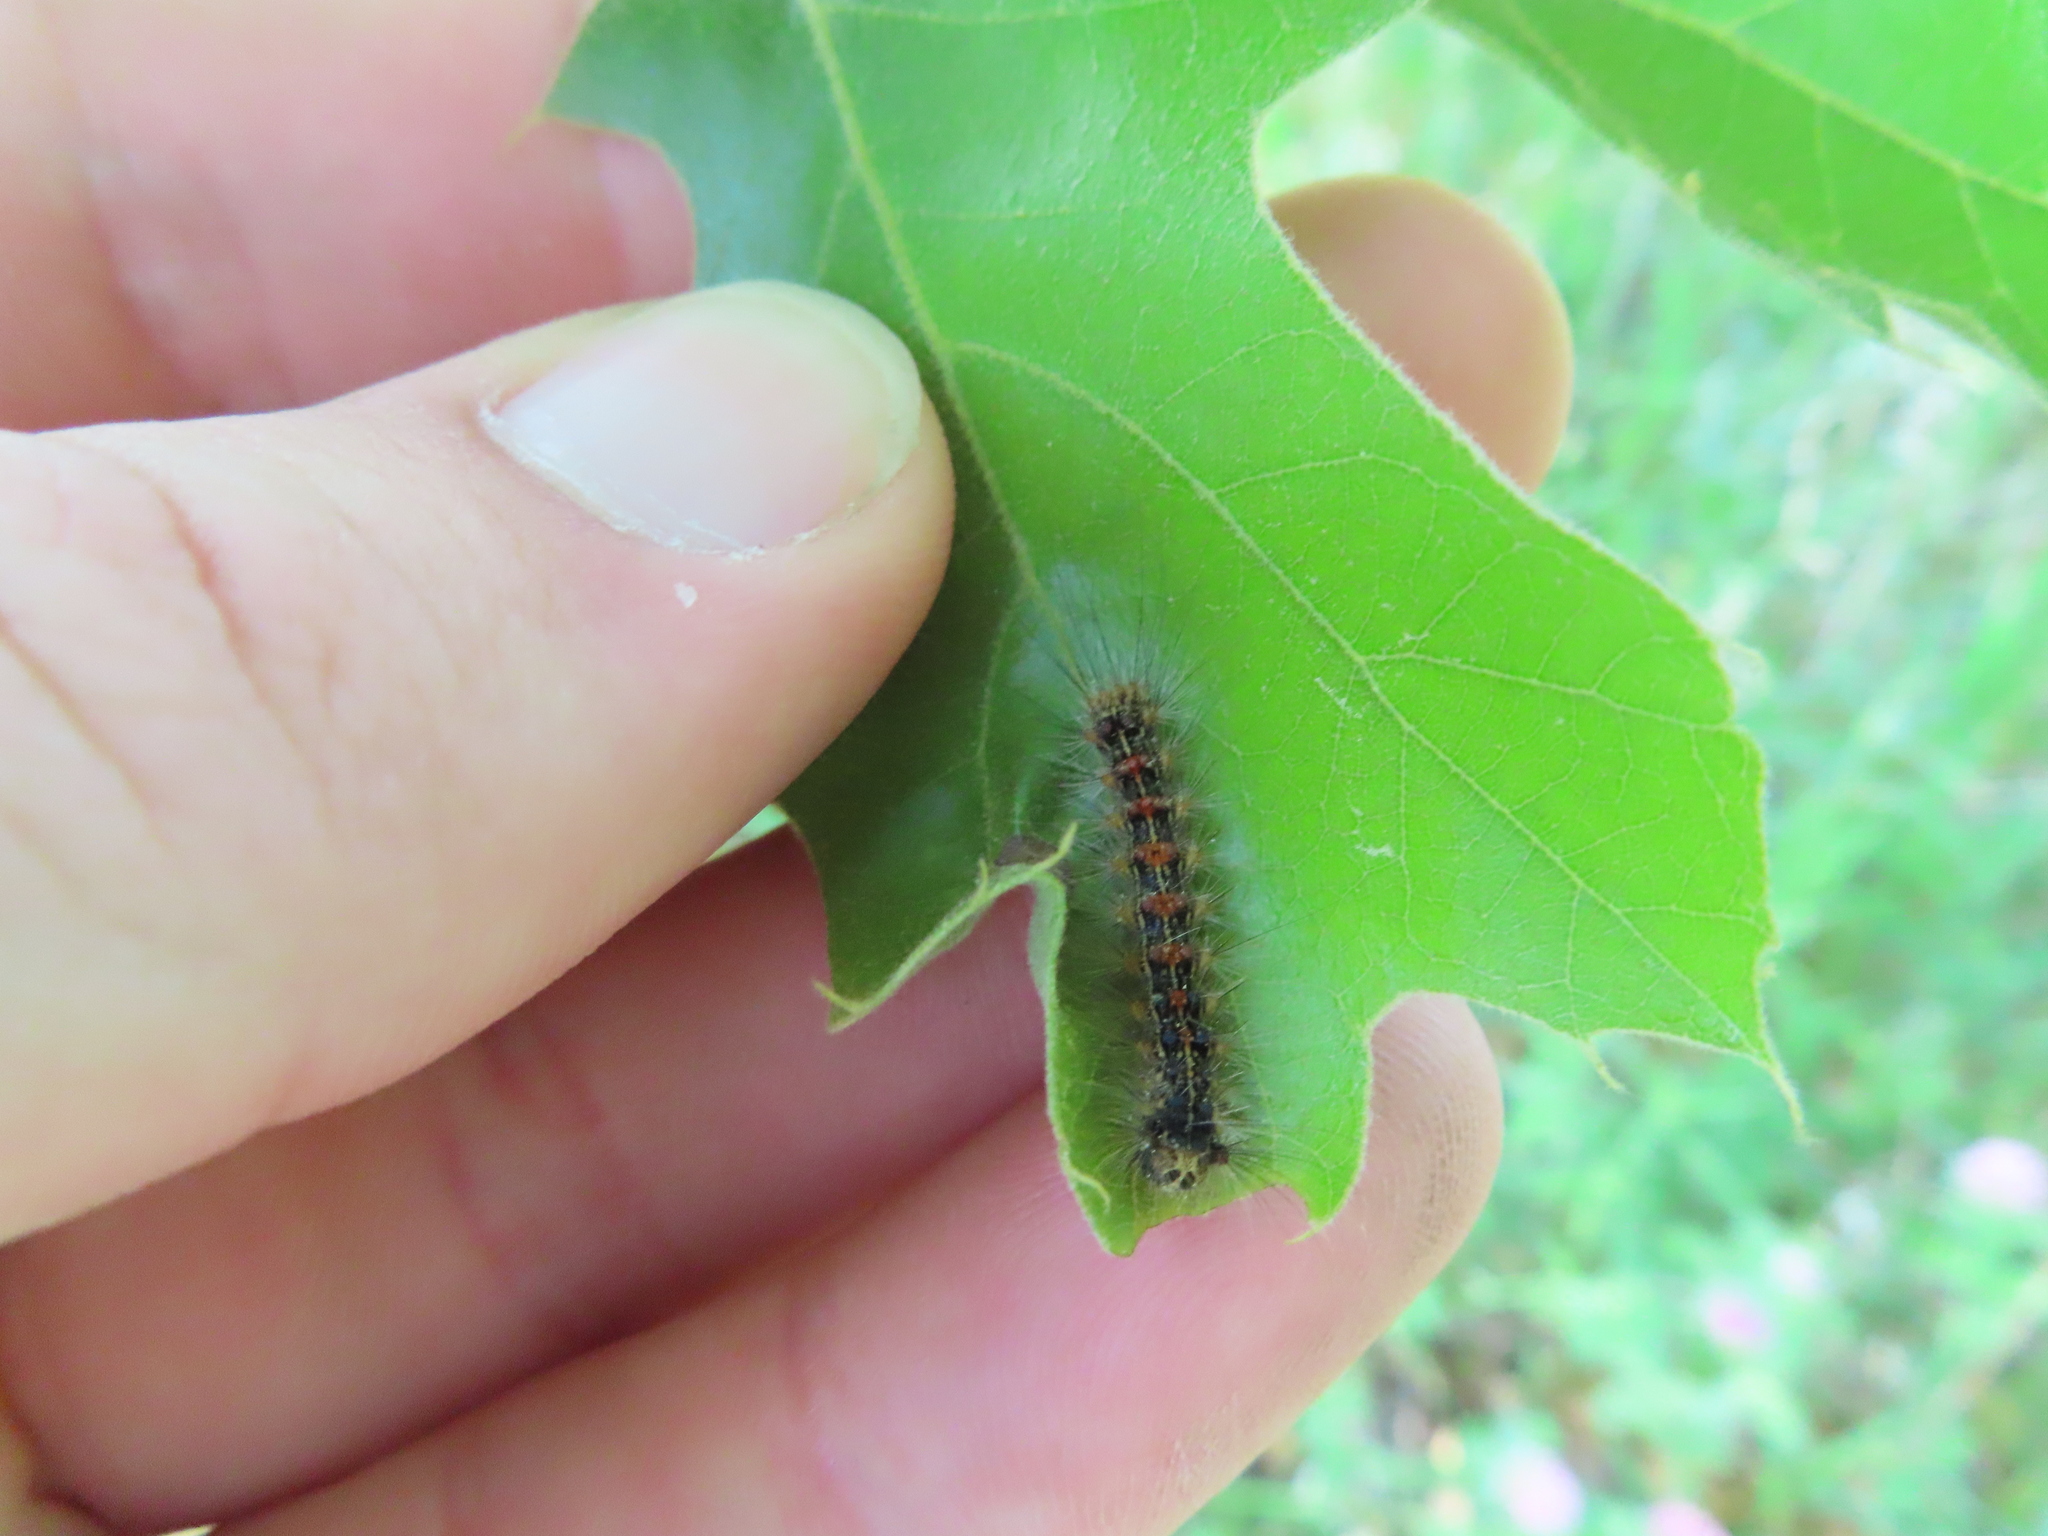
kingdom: Animalia
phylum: Arthropoda
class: Insecta
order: Lepidoptera
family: Erebidae
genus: Lymantria
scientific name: Lymantria dispar
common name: Gypsy moth
